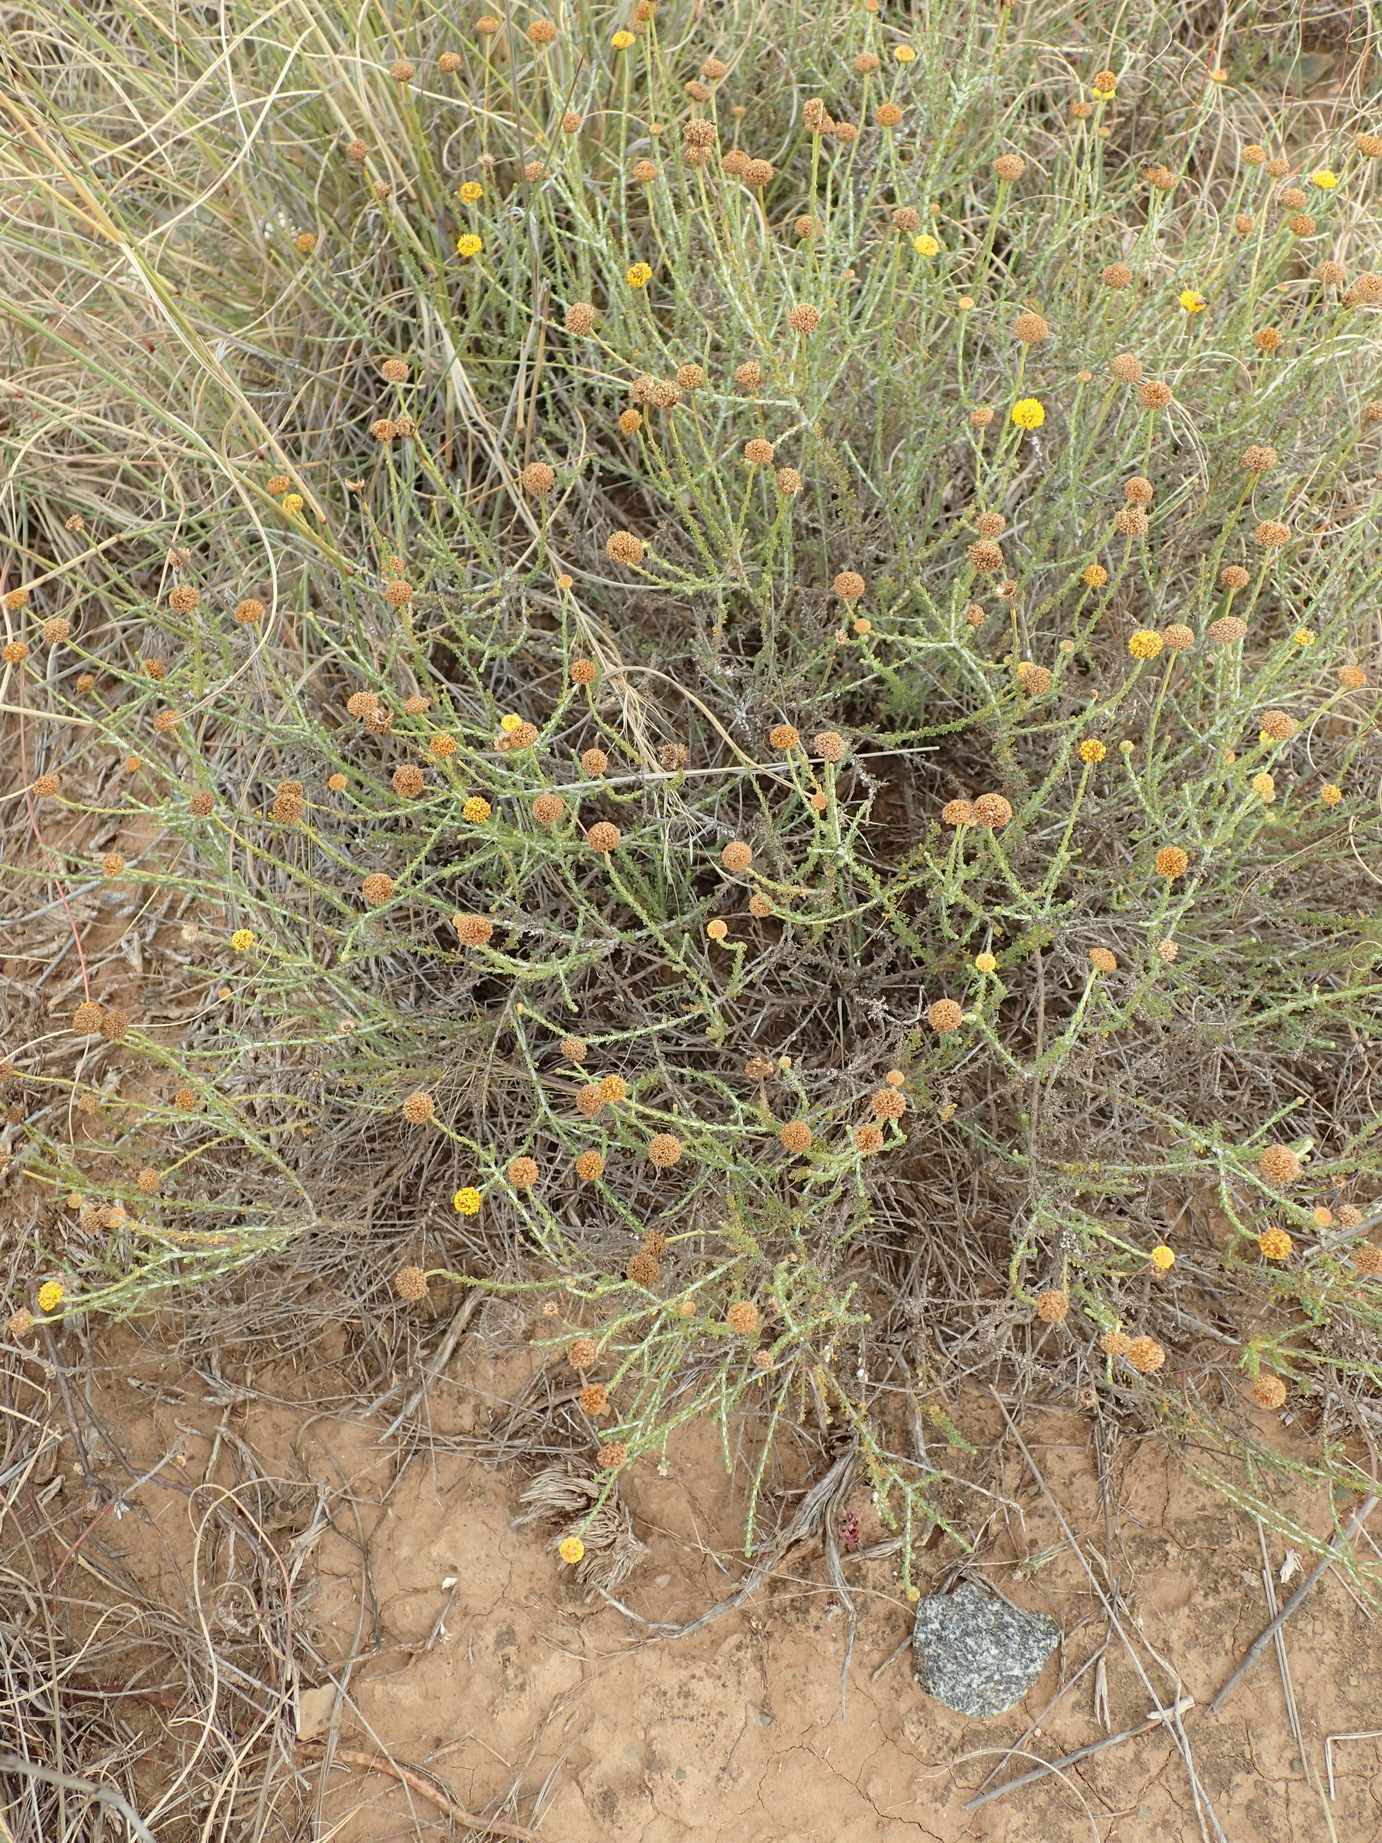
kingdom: Plantae
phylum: Tracheophyta
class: Magnoliopsida
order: Asterales
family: Asteraceae
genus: Pentzia
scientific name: Pentzia incana
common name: African sheepbush
